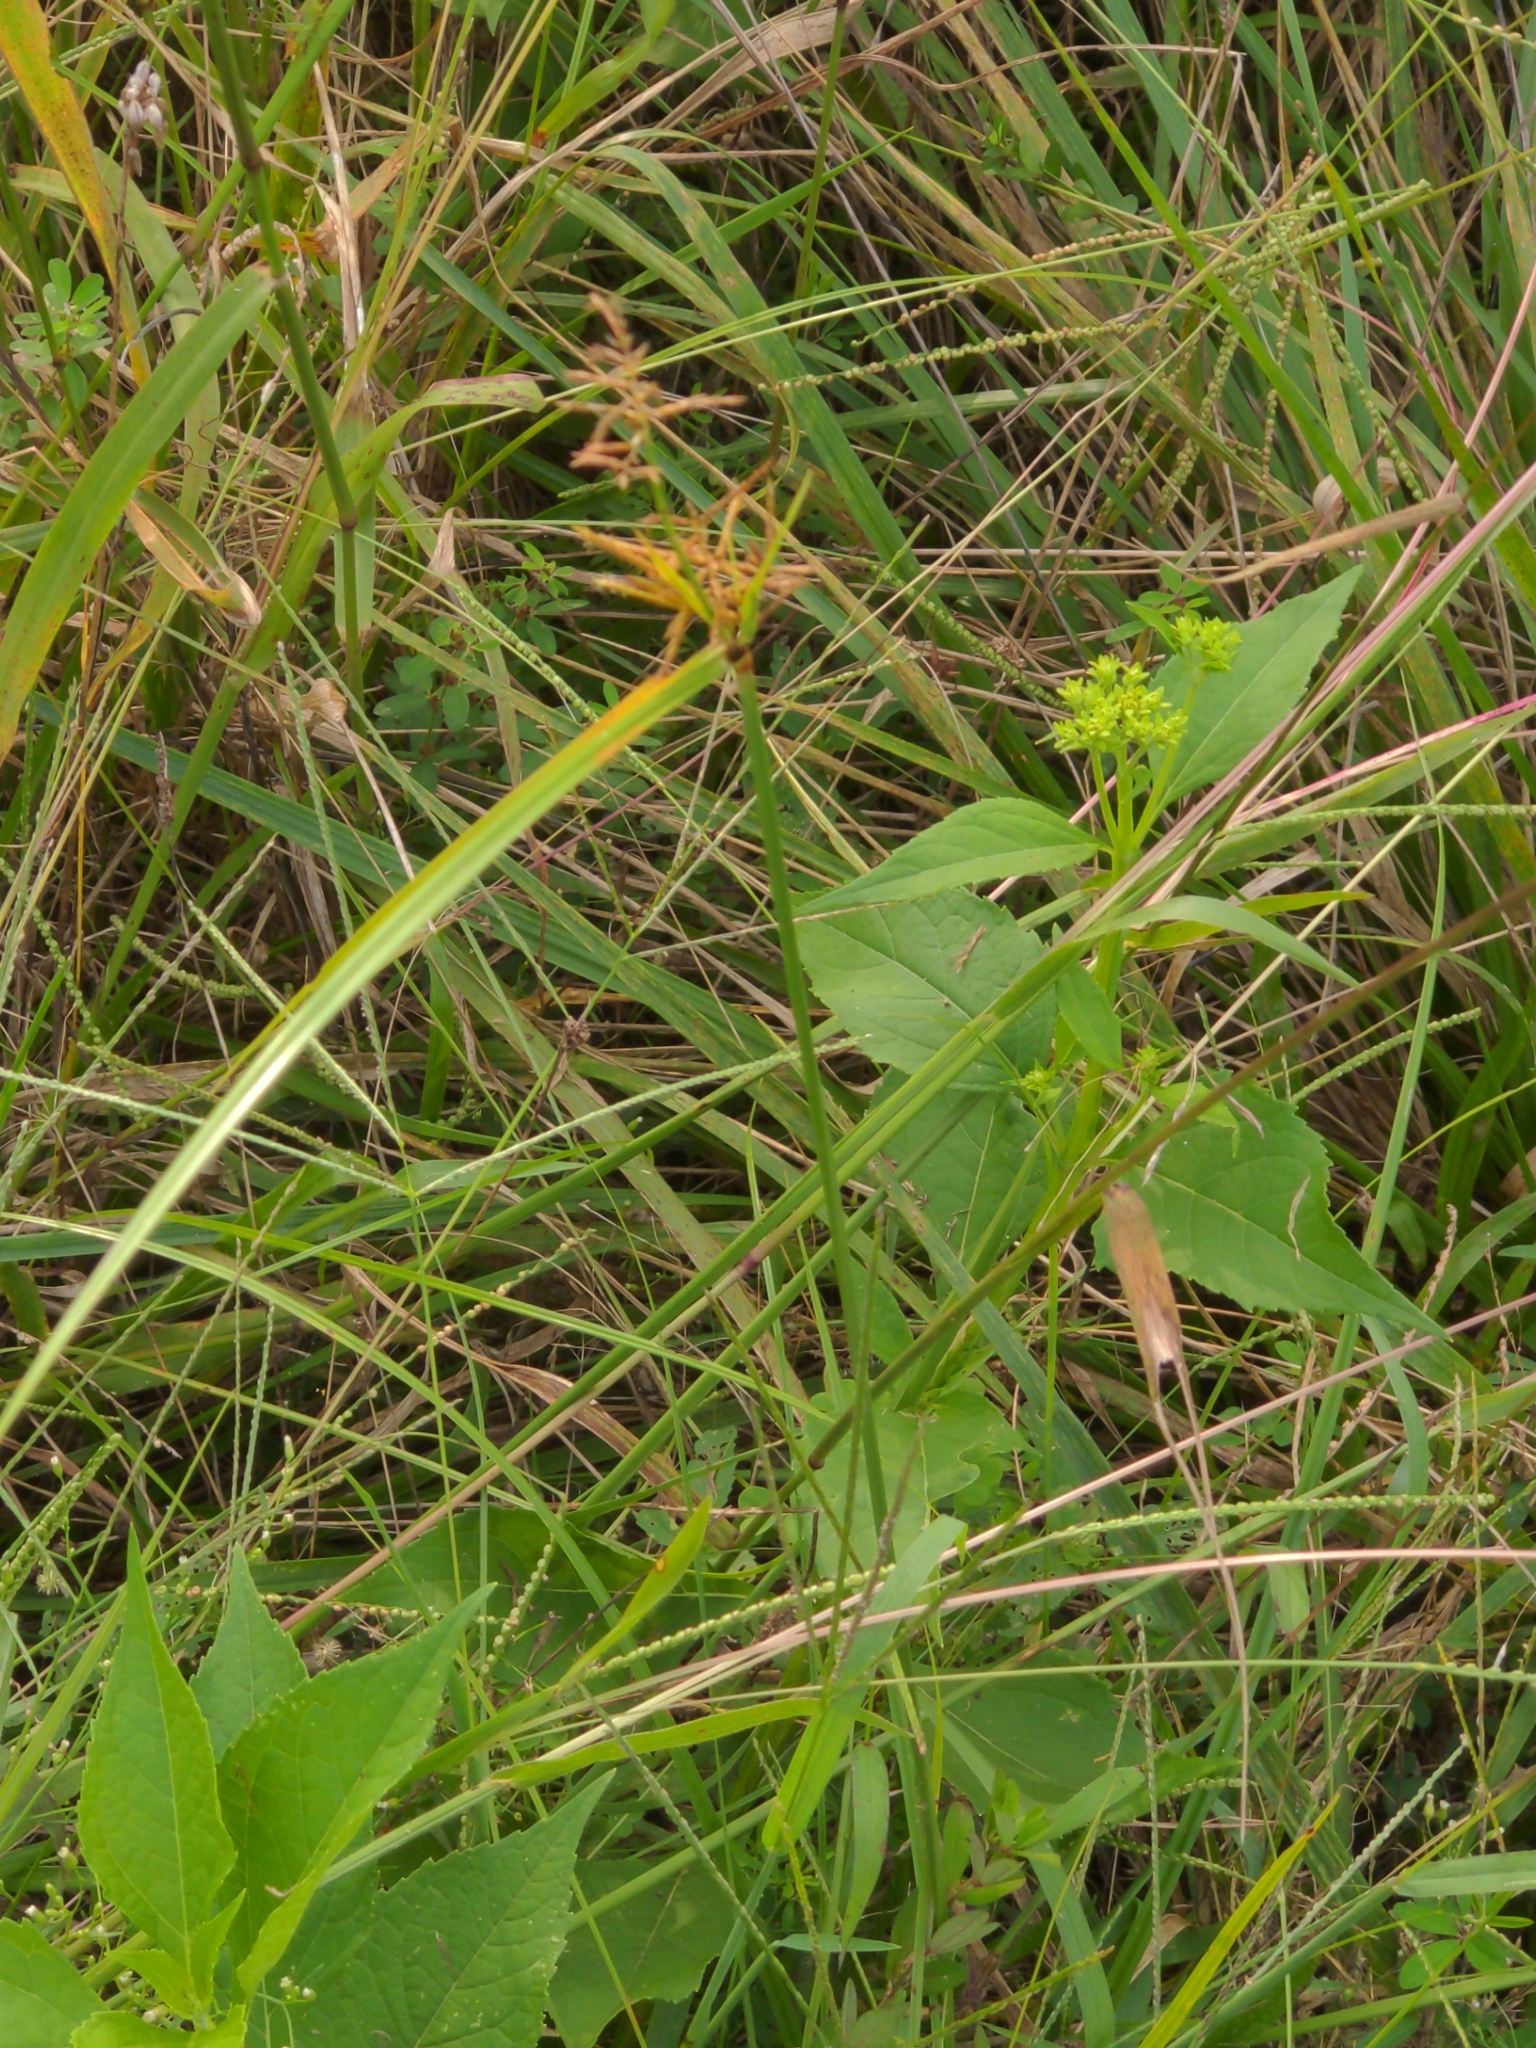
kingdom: Plantae
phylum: Tracheophyta
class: Liliopsida
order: Poales
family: Cyperaceae
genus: Cyperus
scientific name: Cyperus esculentus
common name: Yellow nutsedge
